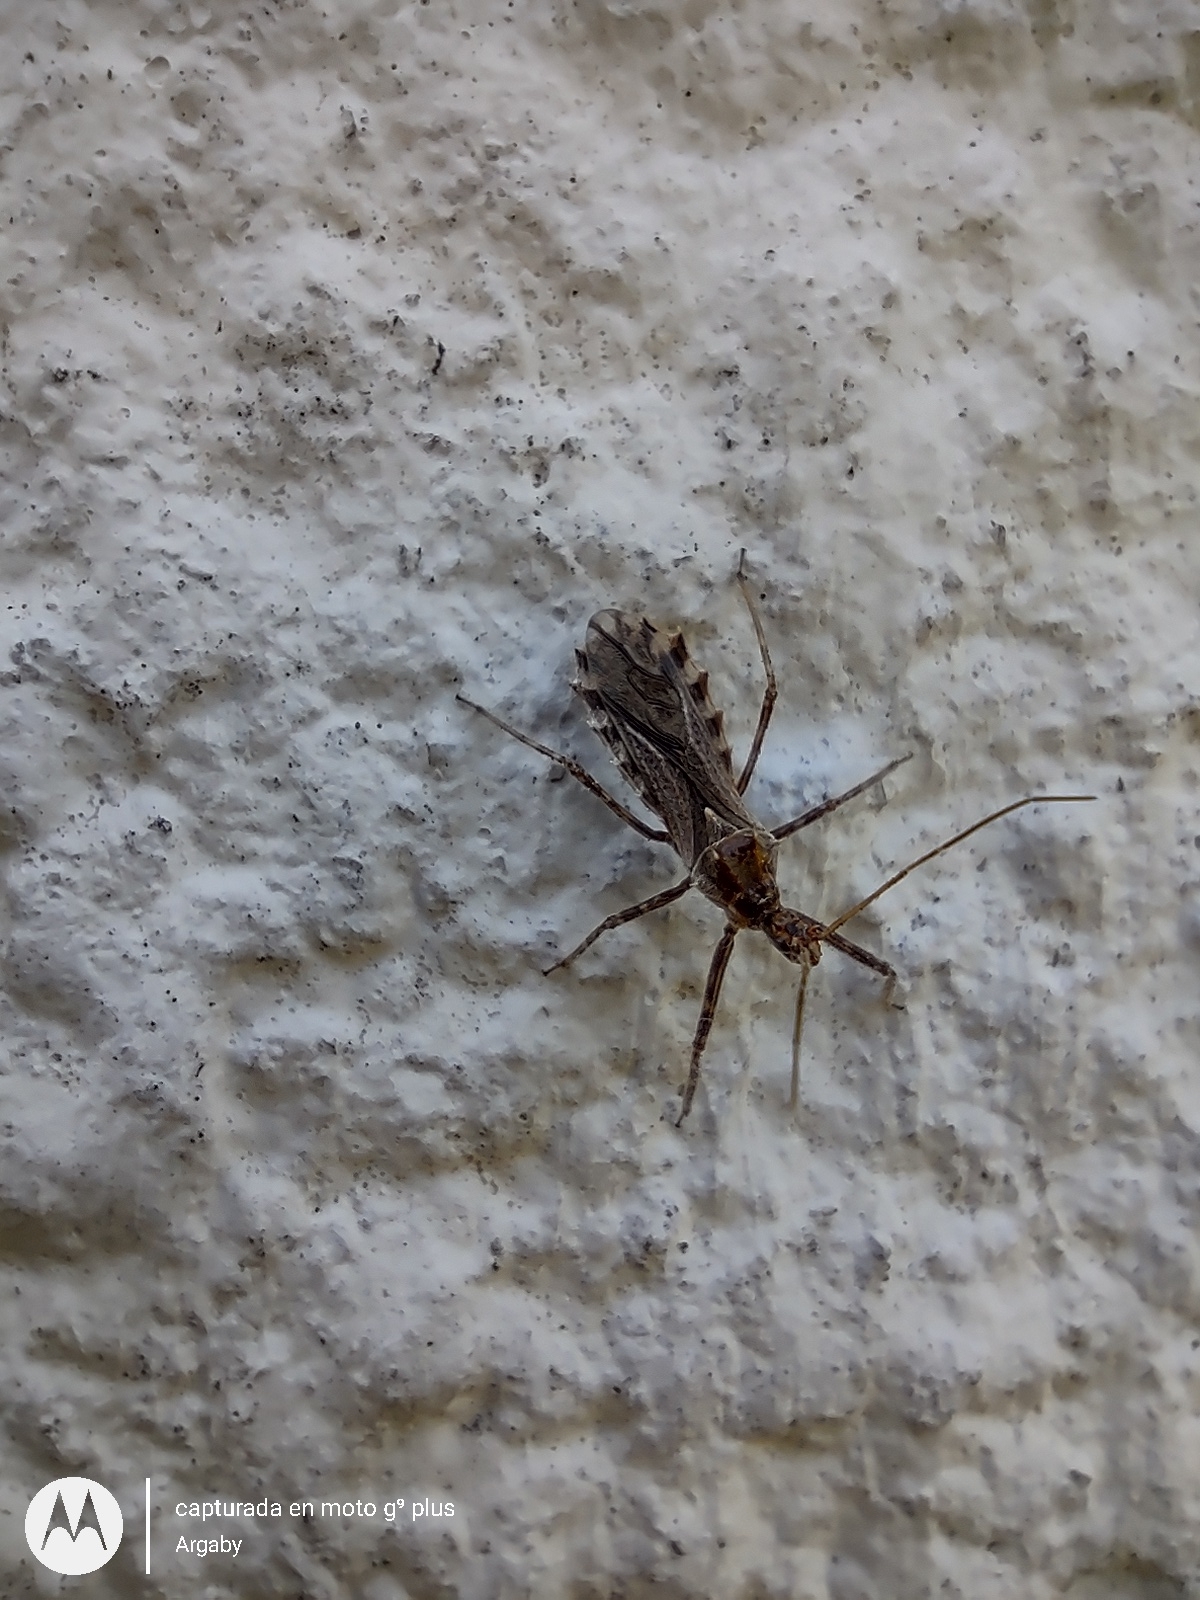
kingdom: Animalia
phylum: Arthropoda
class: Insecta
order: Hemiptera
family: Reduviidae
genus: Atrachelus
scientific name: Atrachelus cinereus
